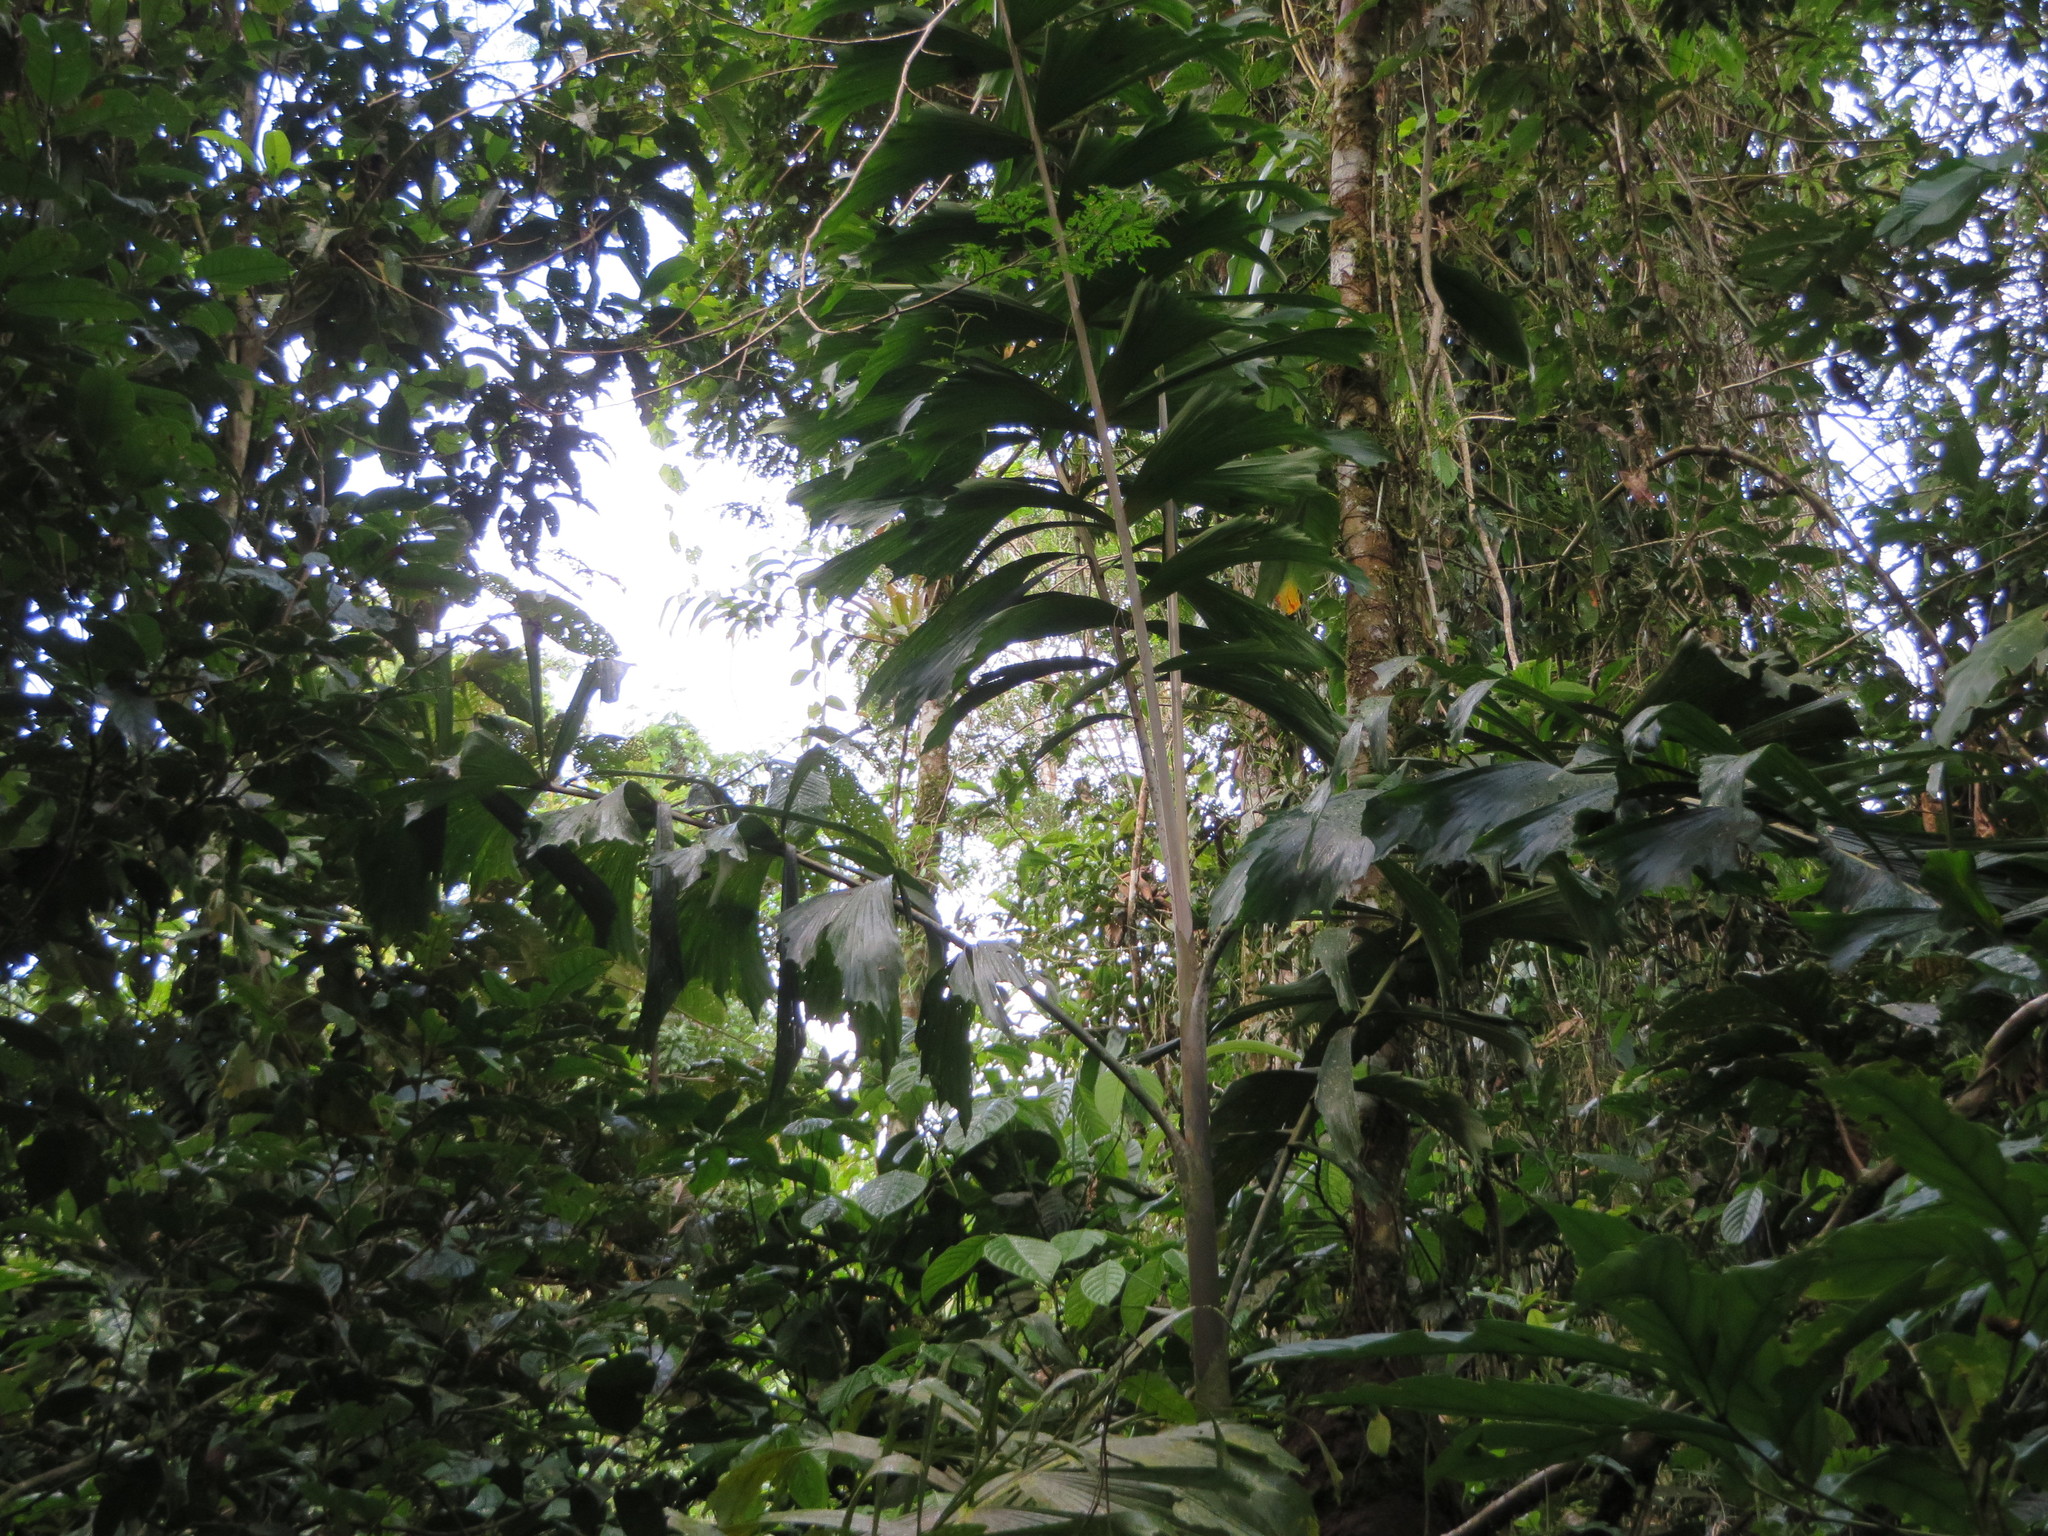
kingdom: Plantae
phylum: Tracheophyta
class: Liliopsida
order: Arecales
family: Arecaceae
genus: Socratea
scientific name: Socratea exorrhiza
